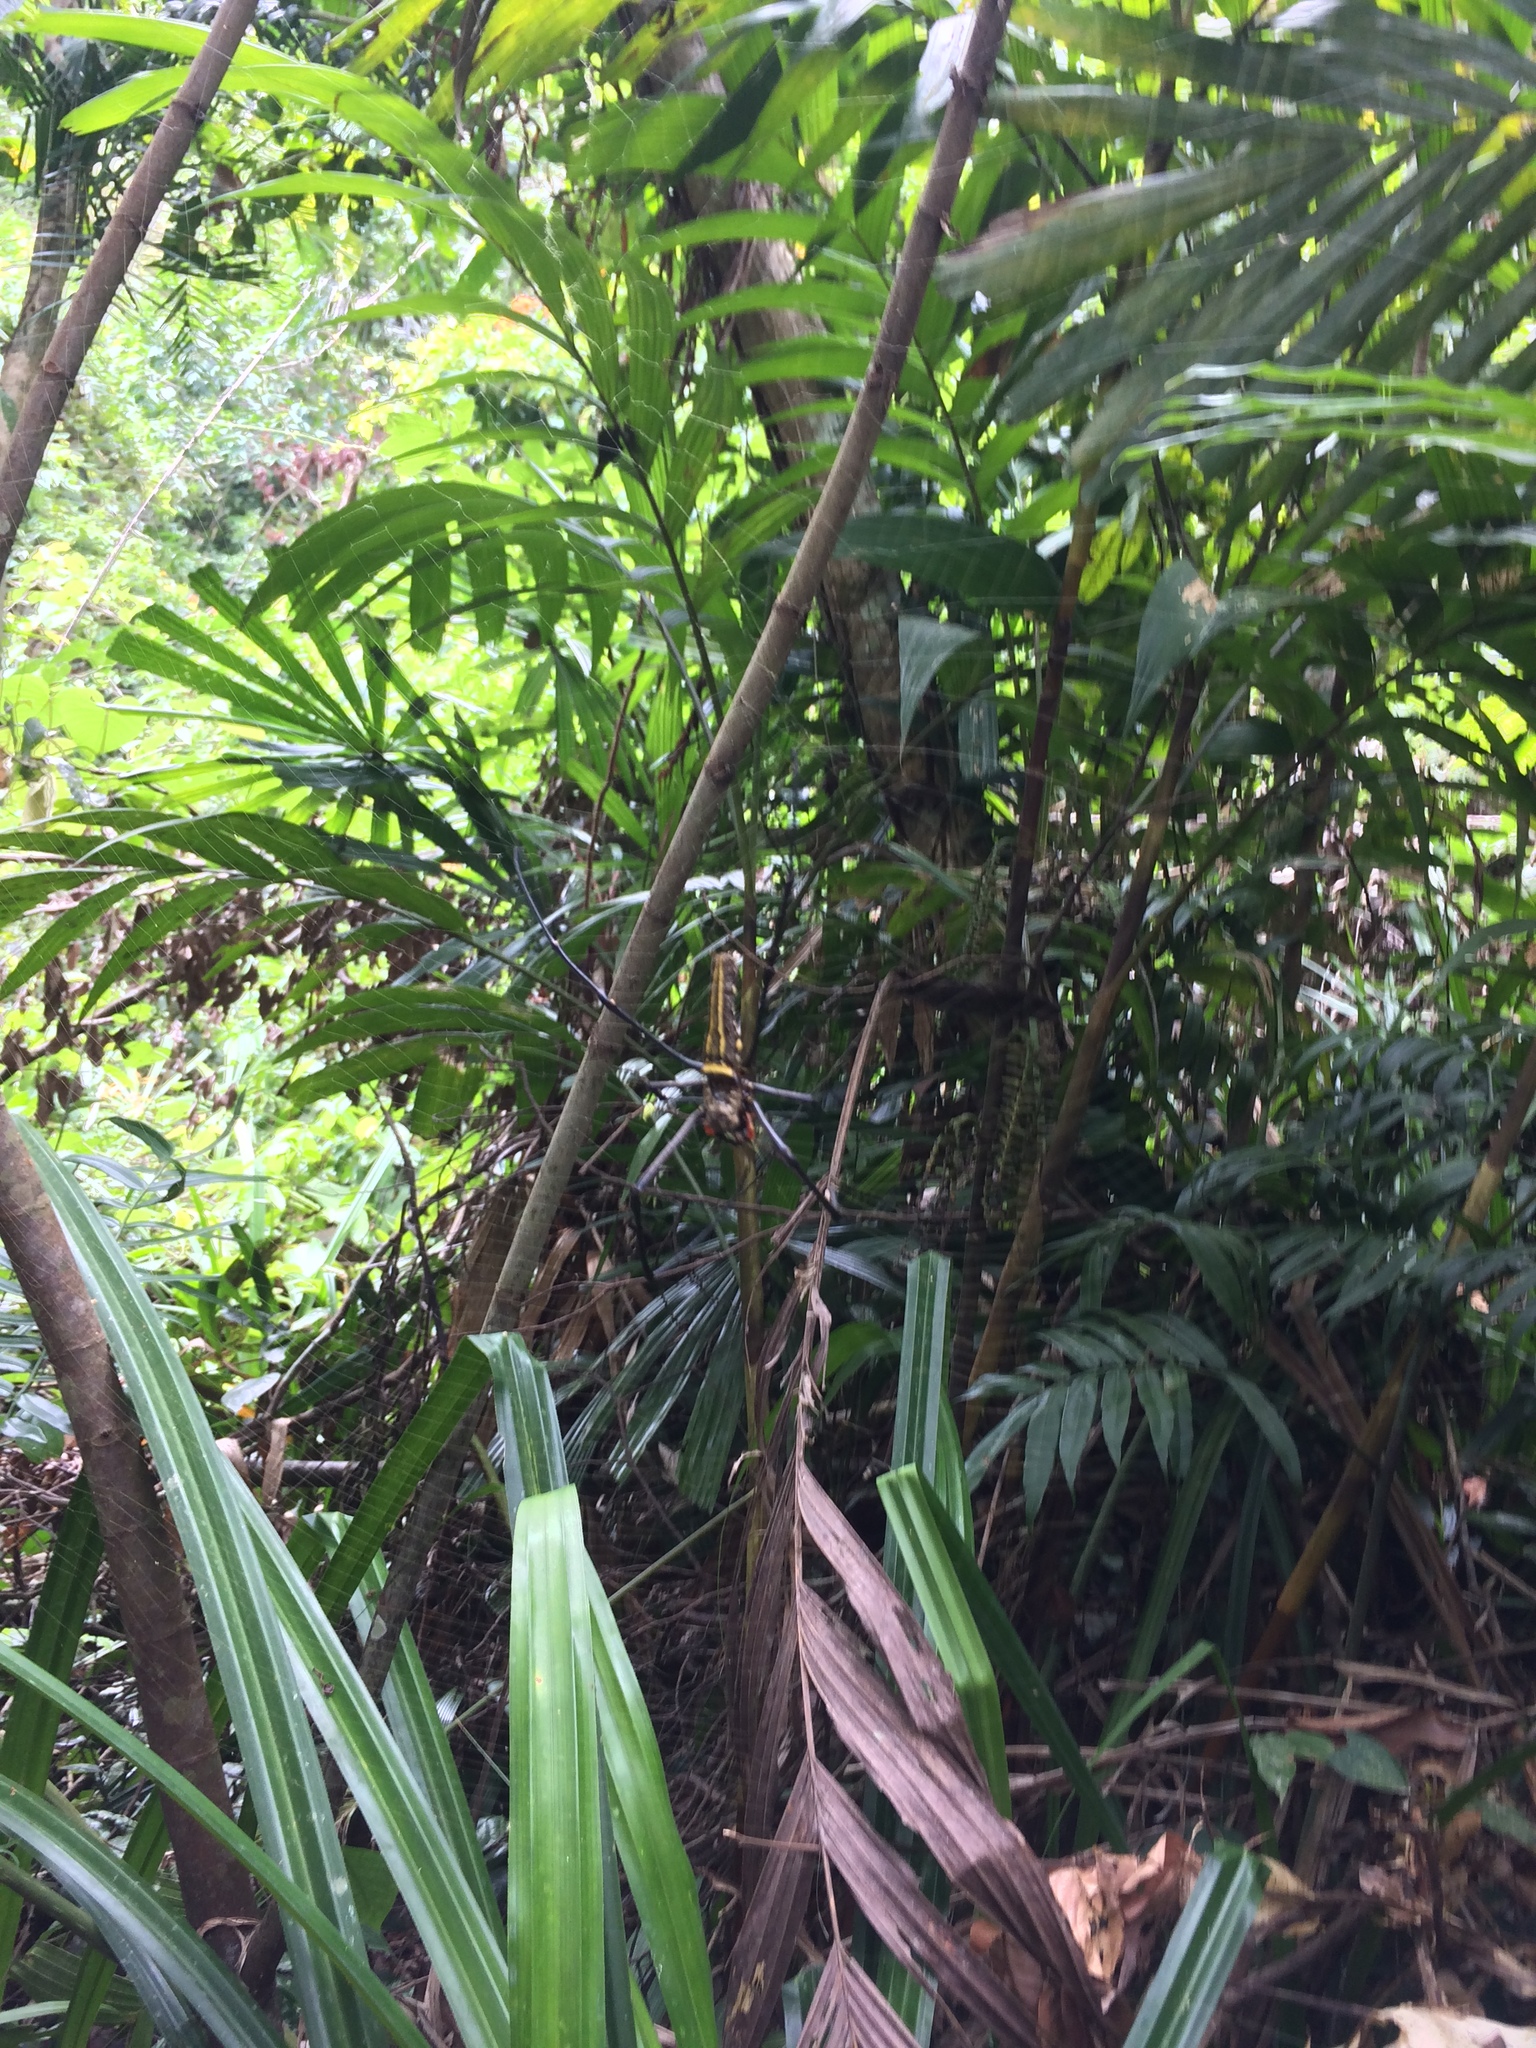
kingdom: Animalia
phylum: Arthropoda
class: Arachnida
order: Araneae
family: Araneidae
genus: Nephila
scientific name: Nephila pilipes
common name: Giant golden orb weaver
